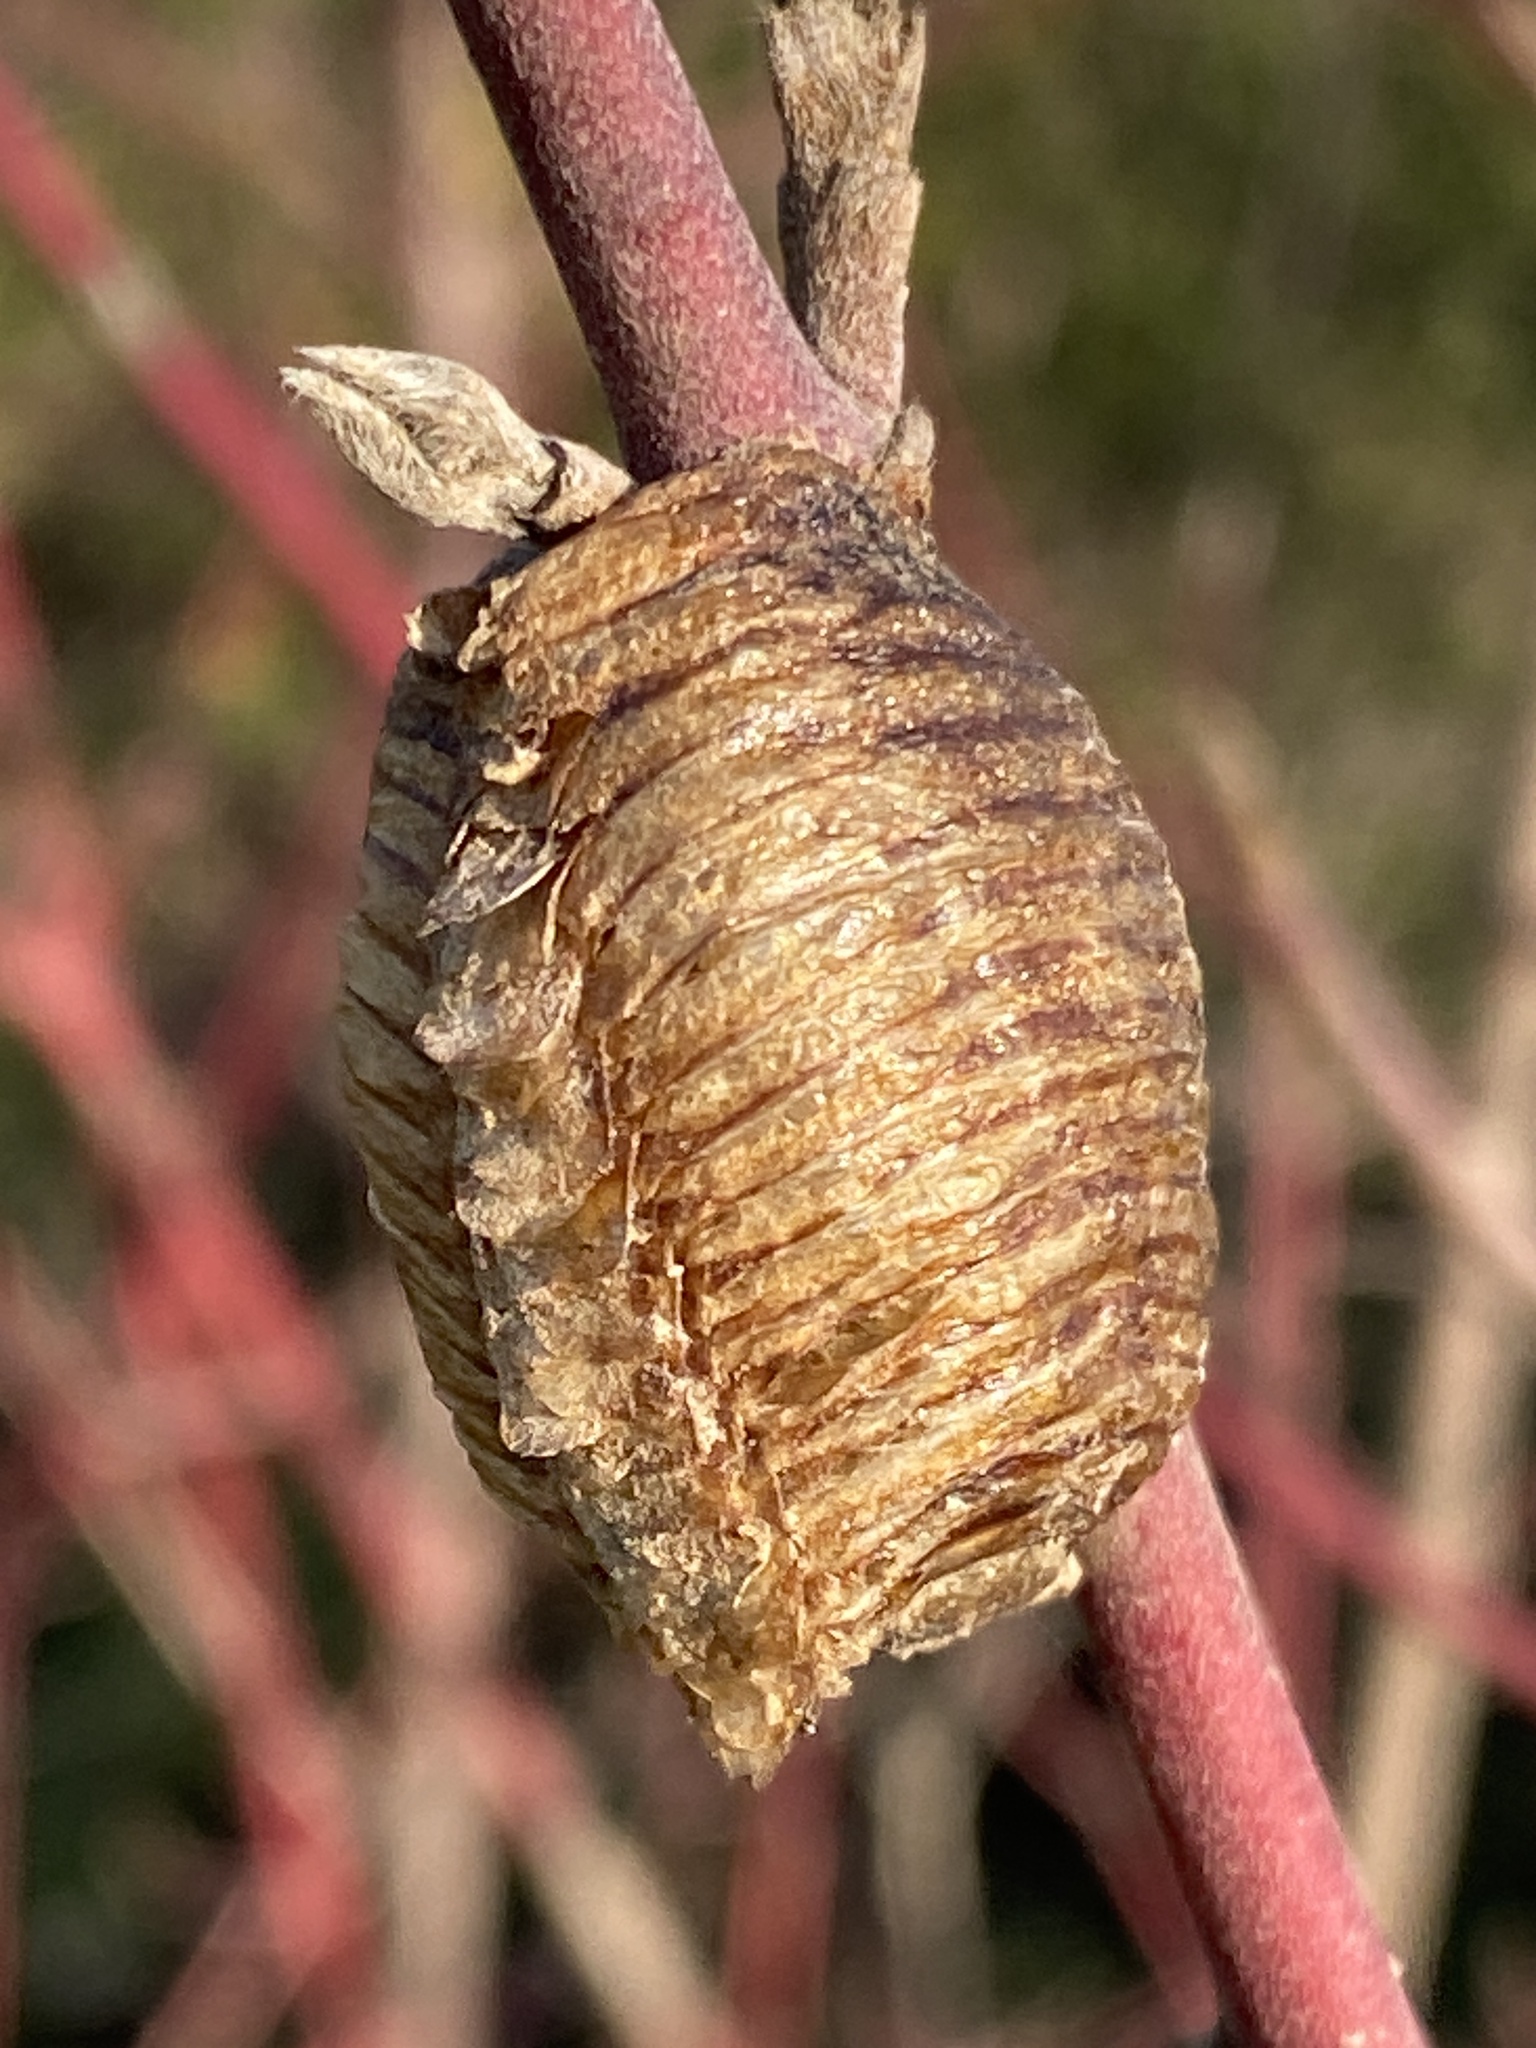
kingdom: Animalia
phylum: Arthropoda
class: Insecta
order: Mantodea
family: Mantidae
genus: Hierodula
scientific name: Hierodula transcaucasica
